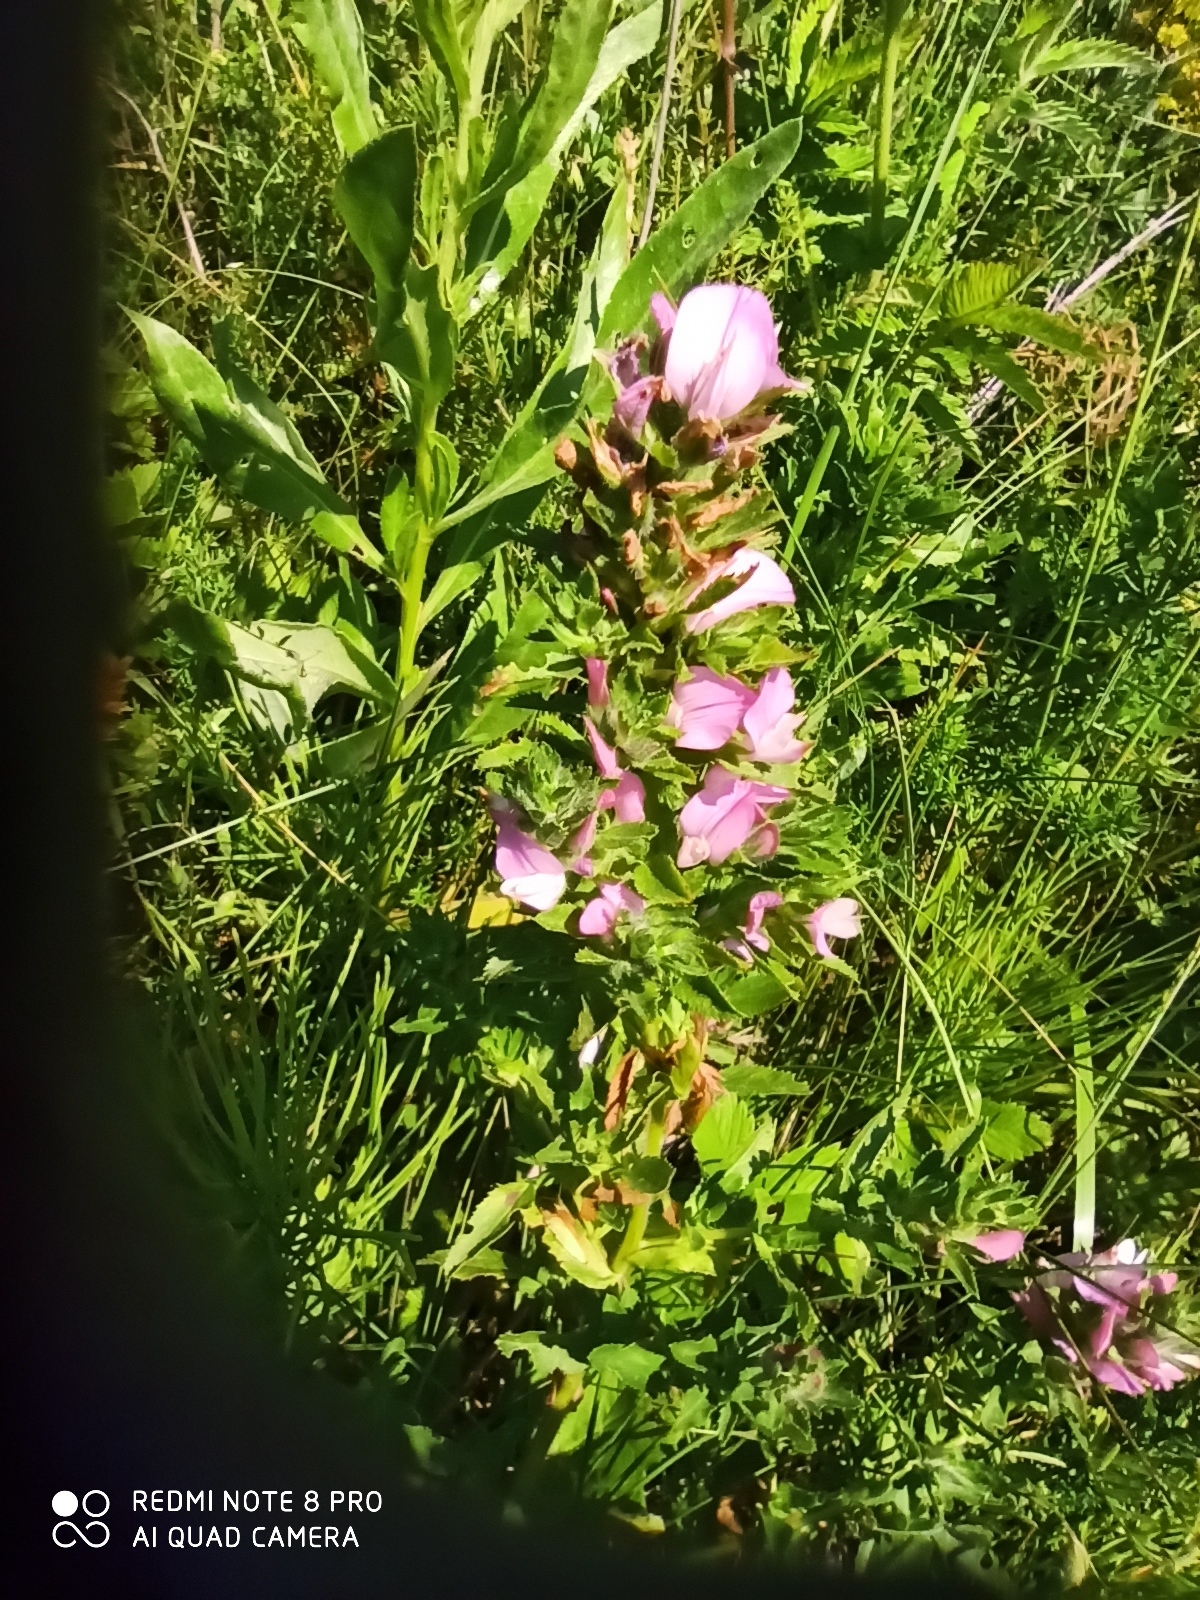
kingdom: Plantae
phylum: Tracheophyta
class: Magnoliopsida
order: Fabales
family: Fabaceae
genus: Ononis
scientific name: Ononis arvensis
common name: Field restharrow
